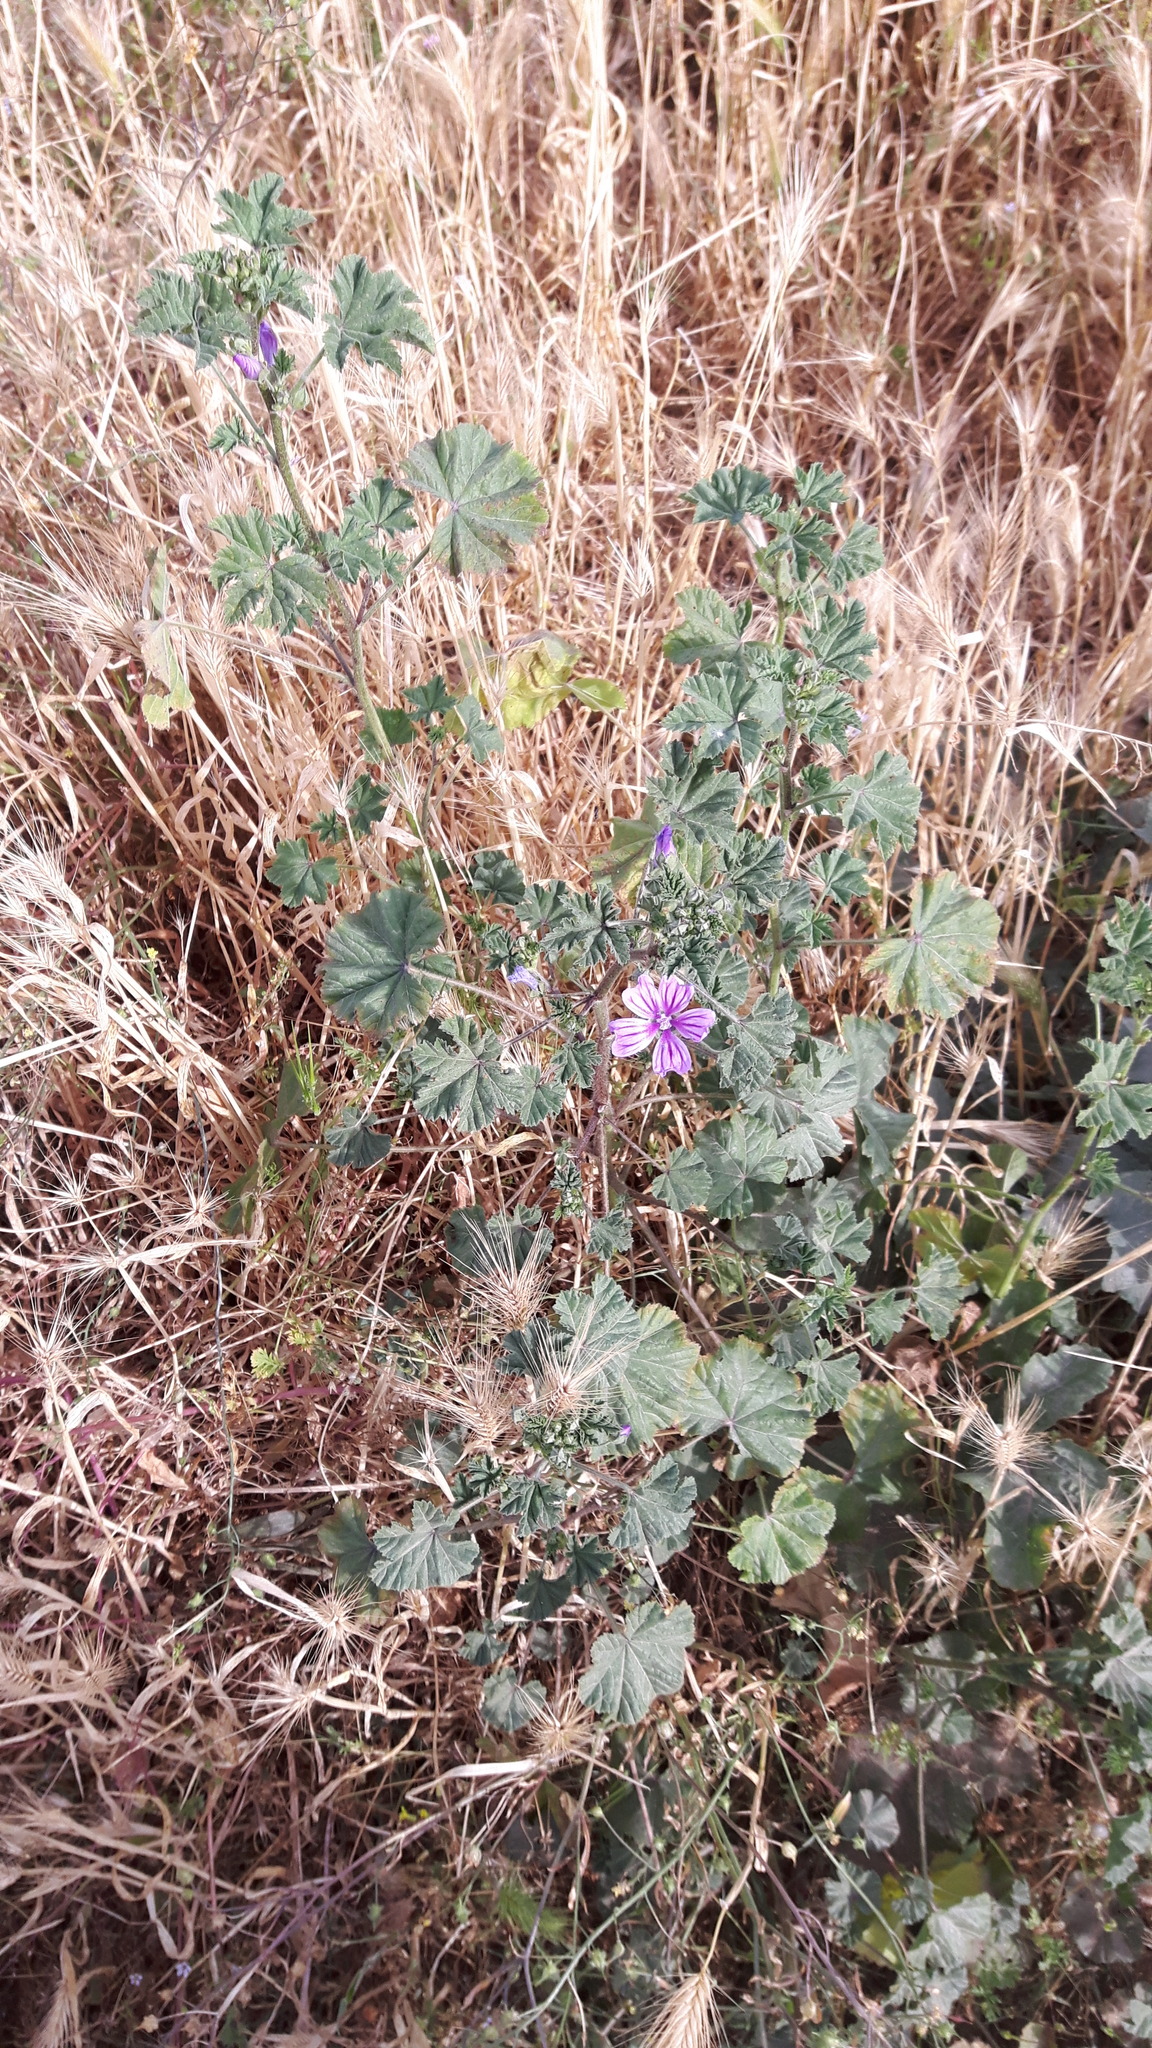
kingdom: Plantae
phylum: Tracheophyta
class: Magnoliopsida
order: Malvales
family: Malvaceae
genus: Malva
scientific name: Malva sylvestris
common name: Common mallow
